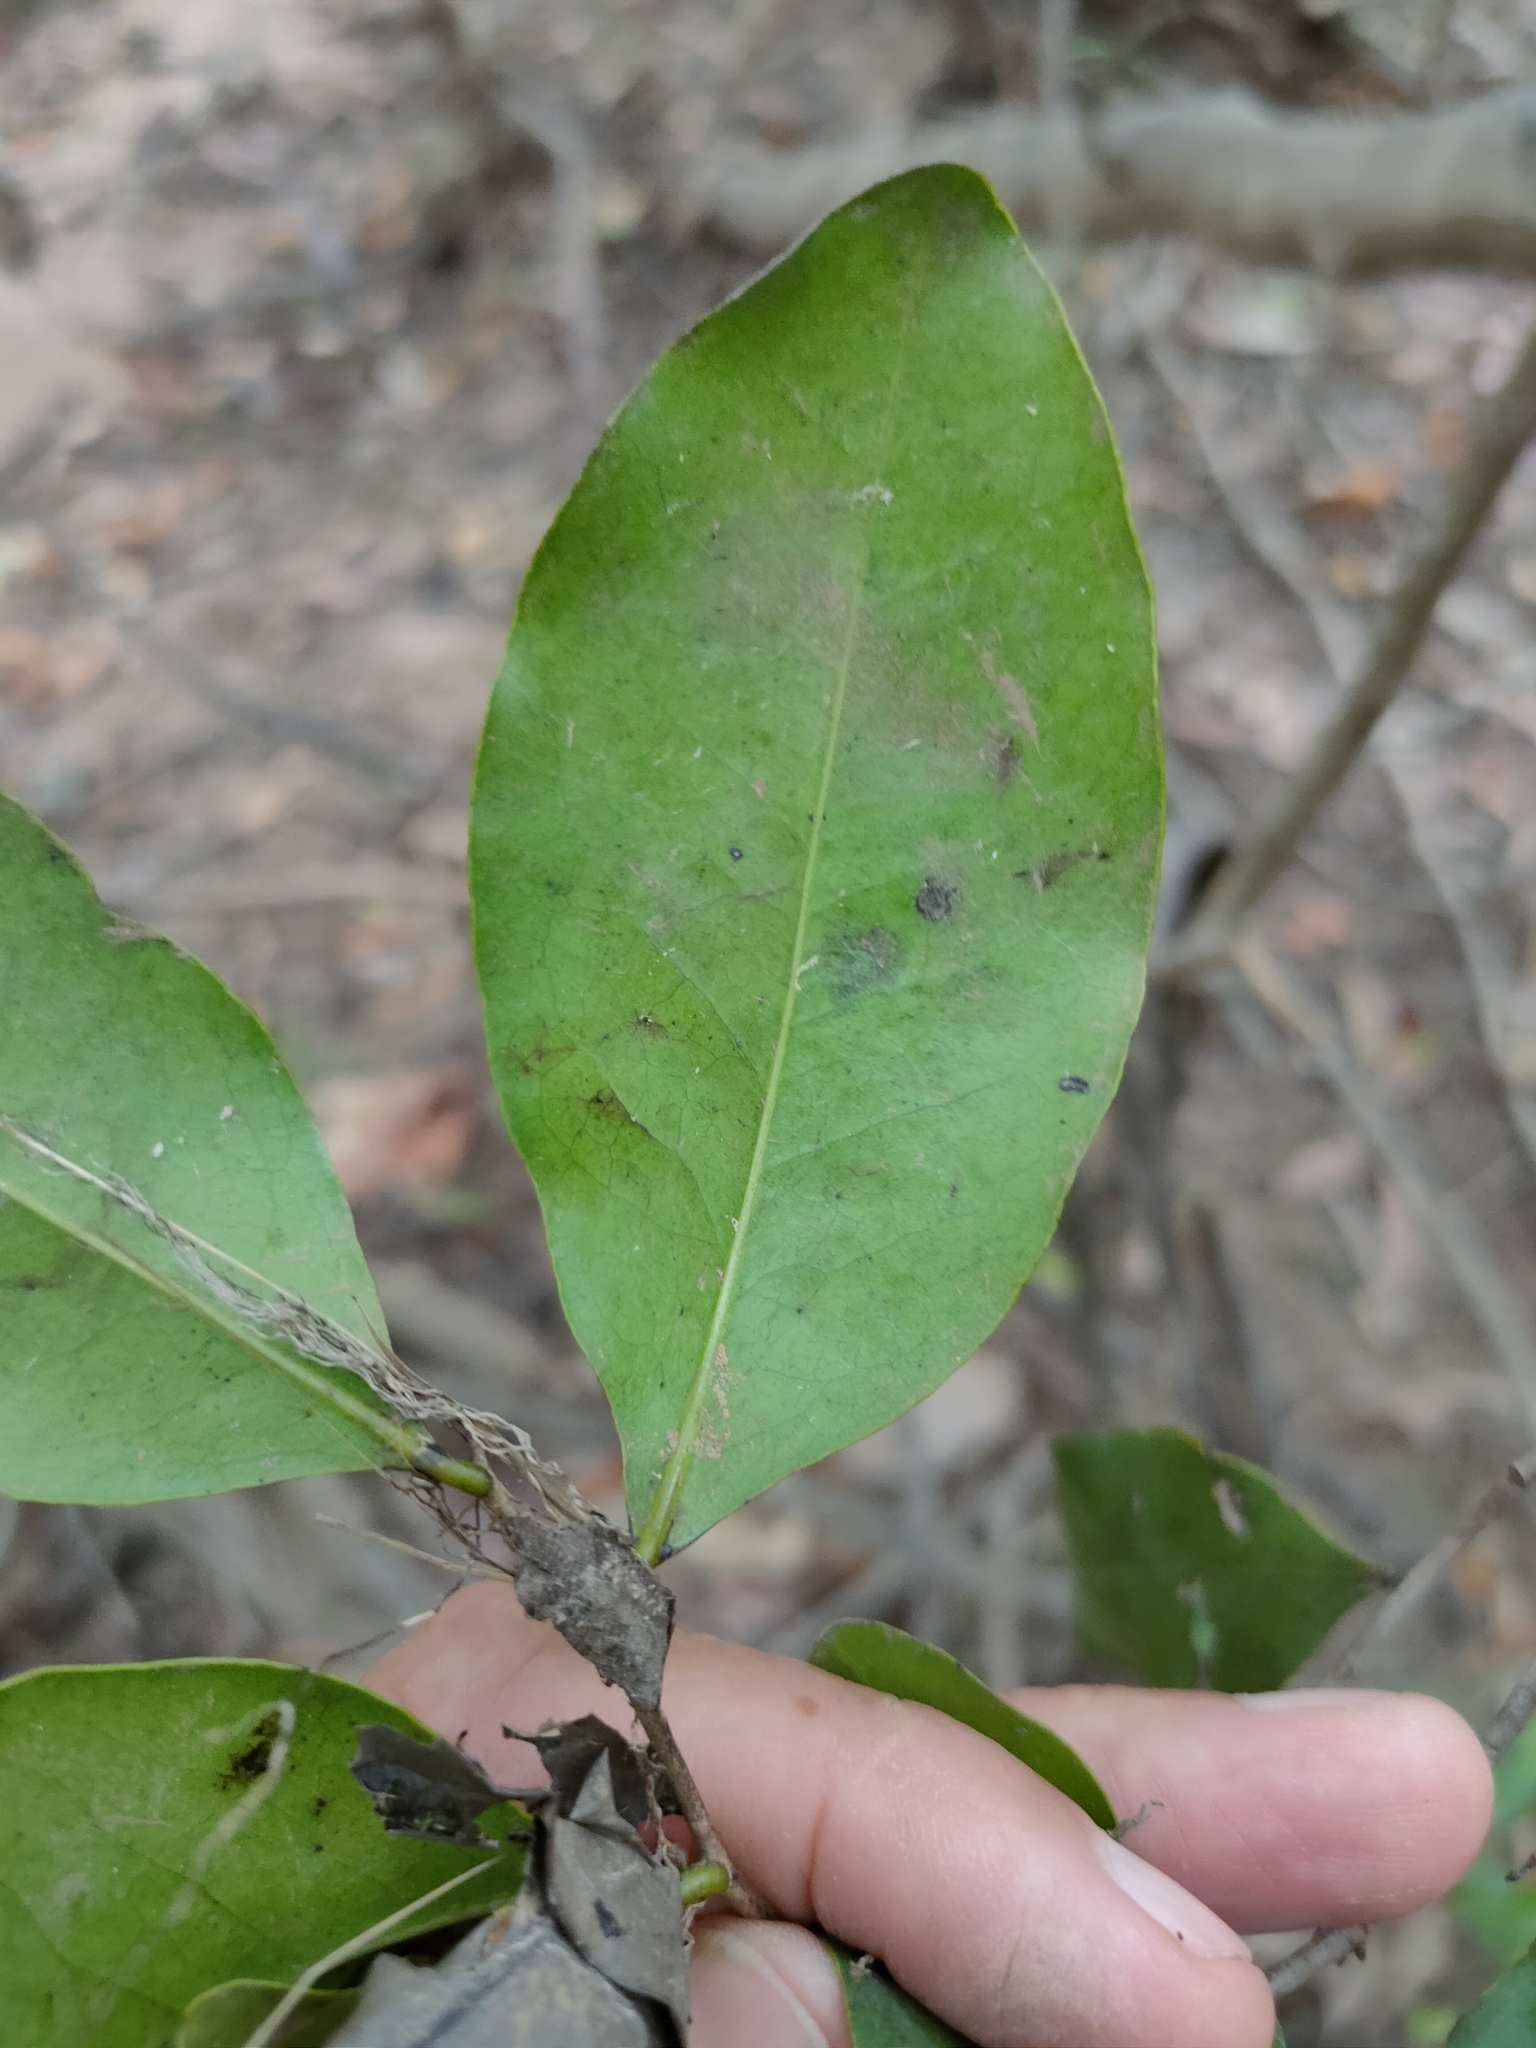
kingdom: Plantae
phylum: Tracheophyta
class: Magnoliopsida
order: Ericales
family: Ebenaceae
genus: Diospyros
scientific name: Diospyros geminata
